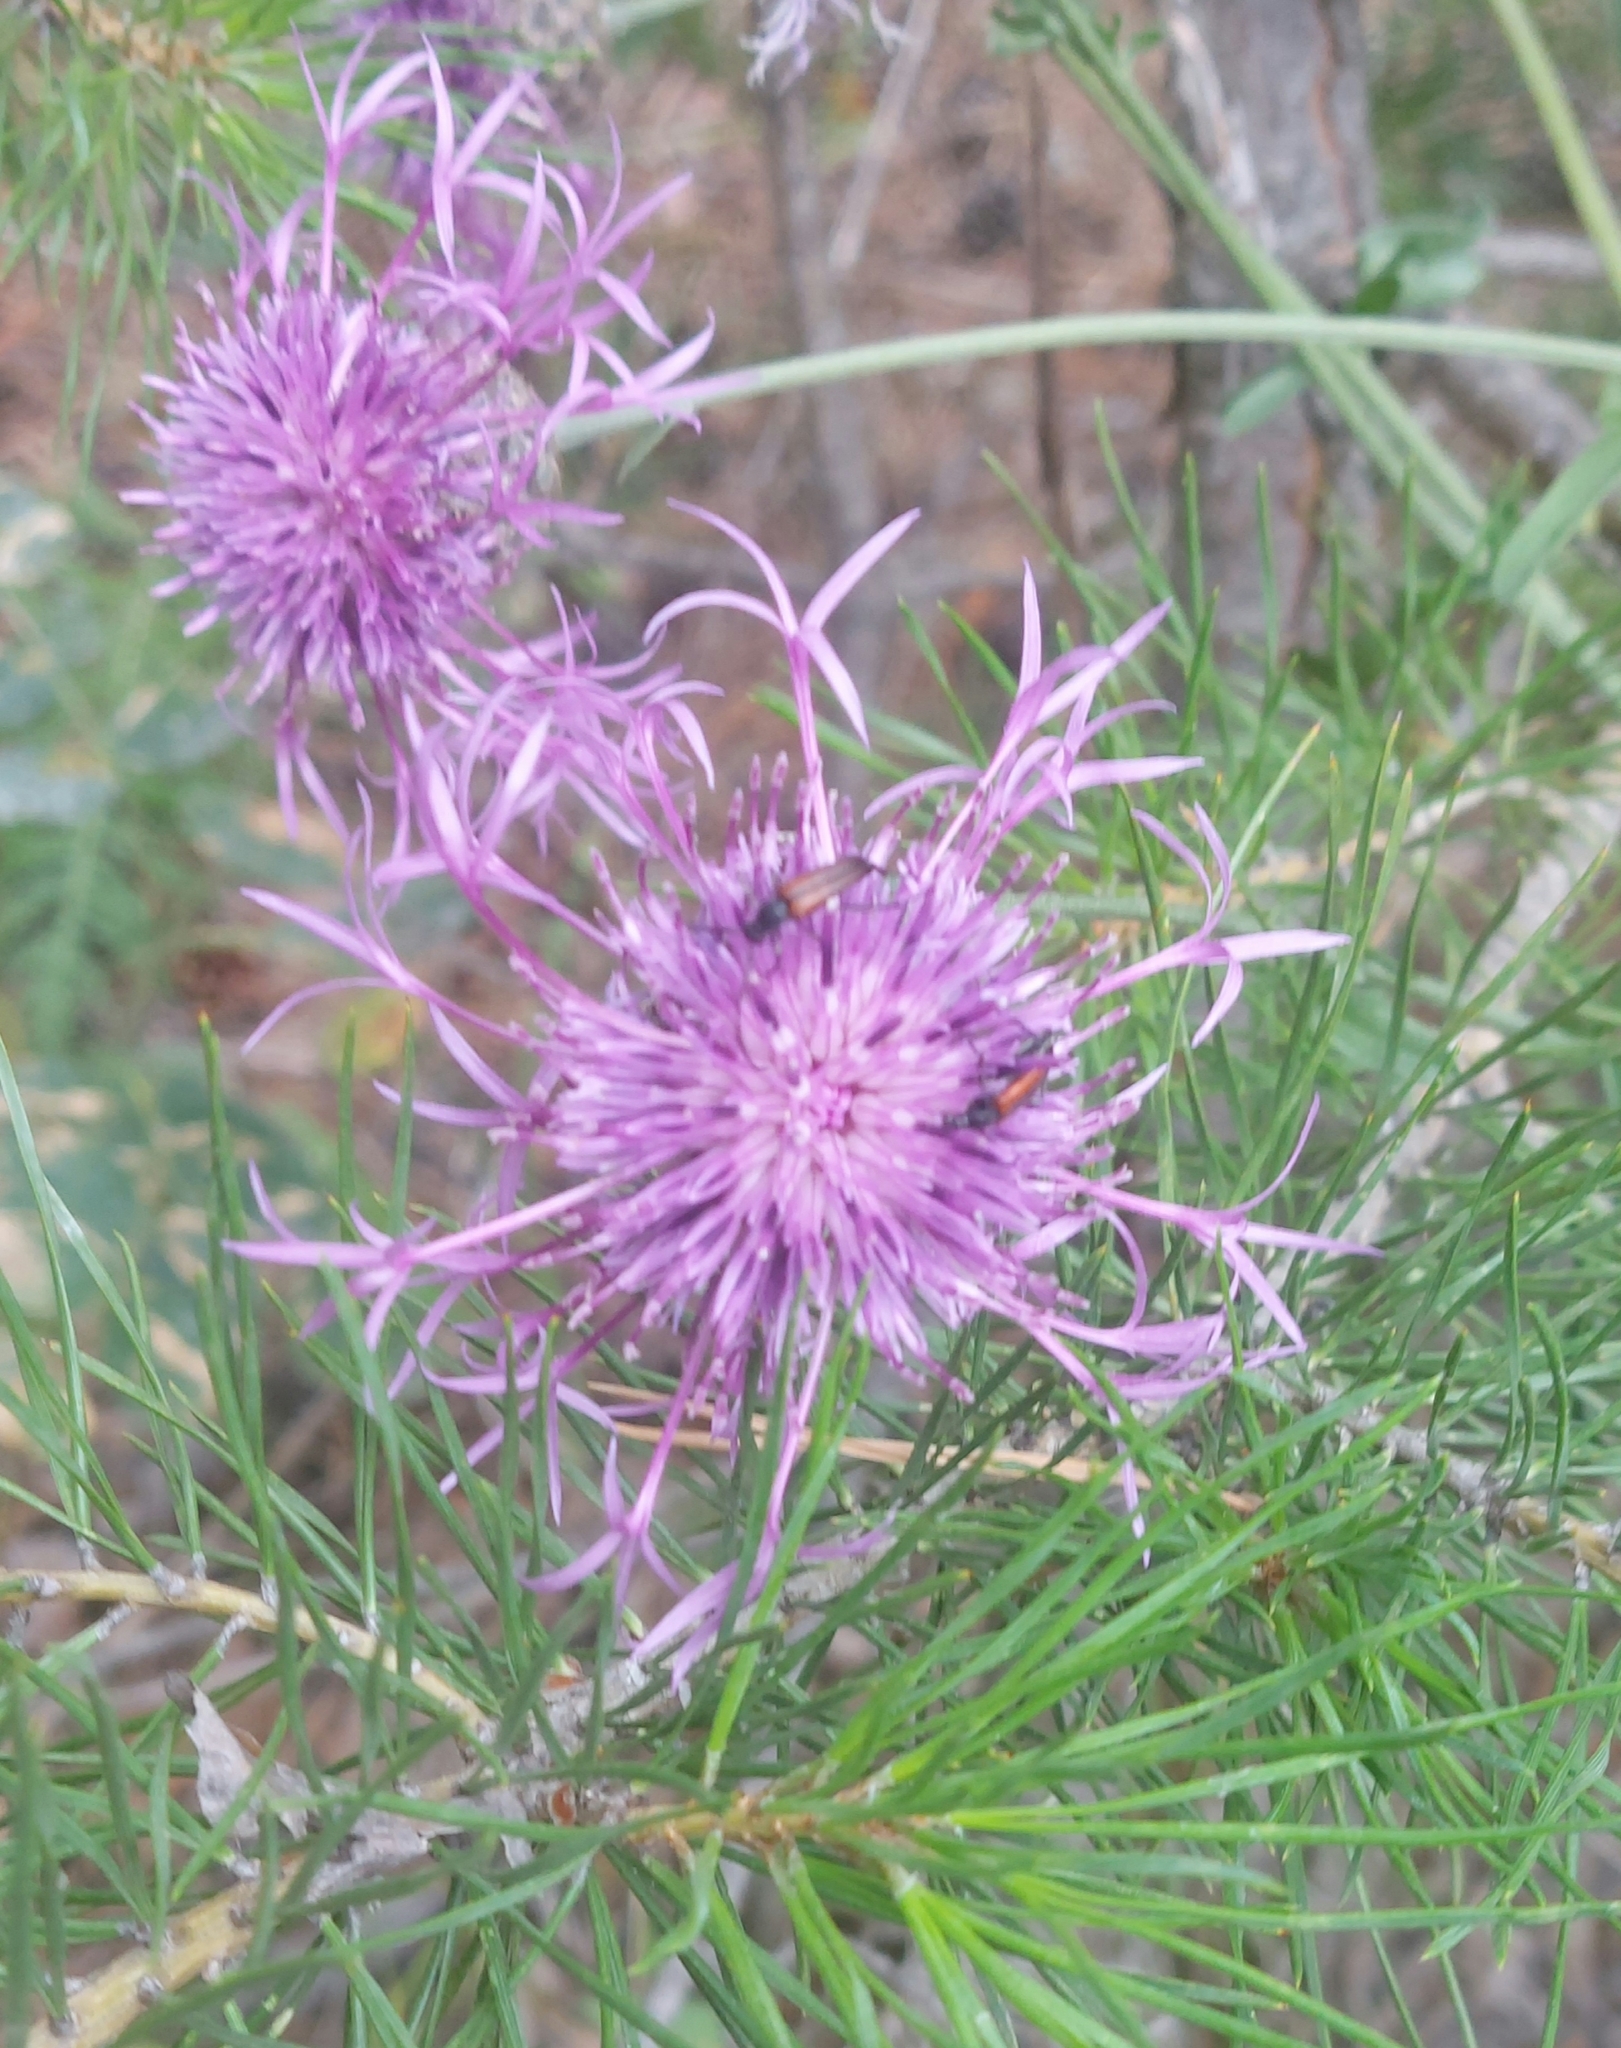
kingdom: Plantae
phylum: Tracheophyta
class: Magnoliopsida
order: Asterales
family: Asteraceae
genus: Centaurea
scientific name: Centaurea scabiosa
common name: Greater knapweed
